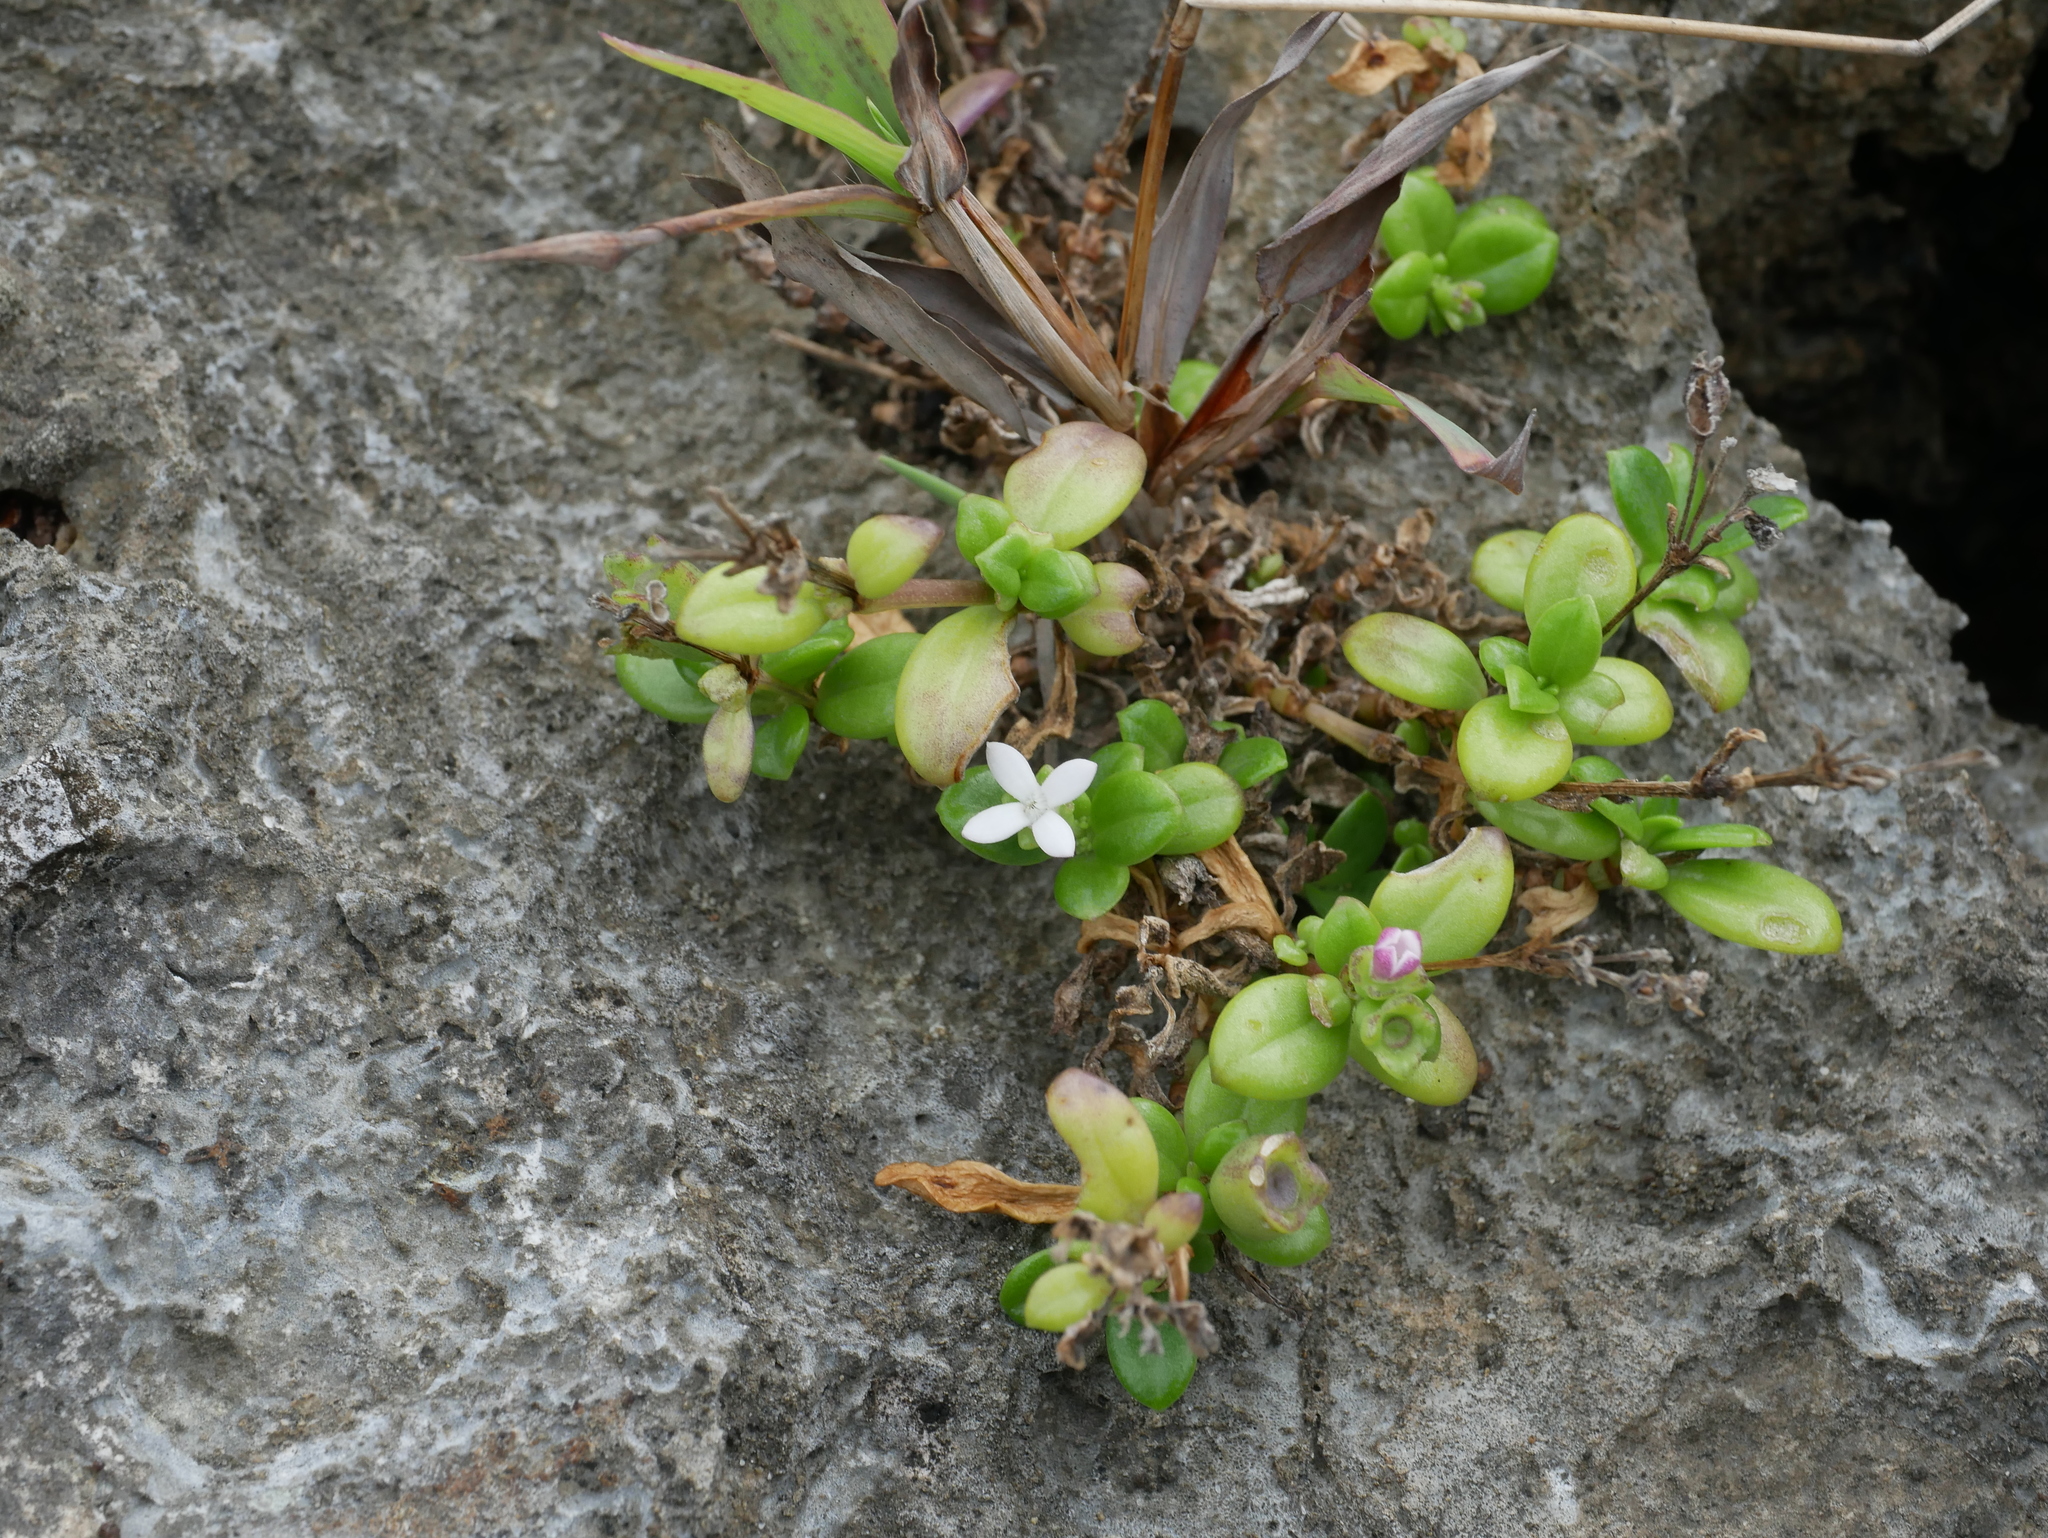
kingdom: Plantae
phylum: Tracheophyta
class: Magnoliopsida
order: Gentianales
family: Rubiaceae
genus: Leptopetalum
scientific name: Leptopetalum strigulosum
